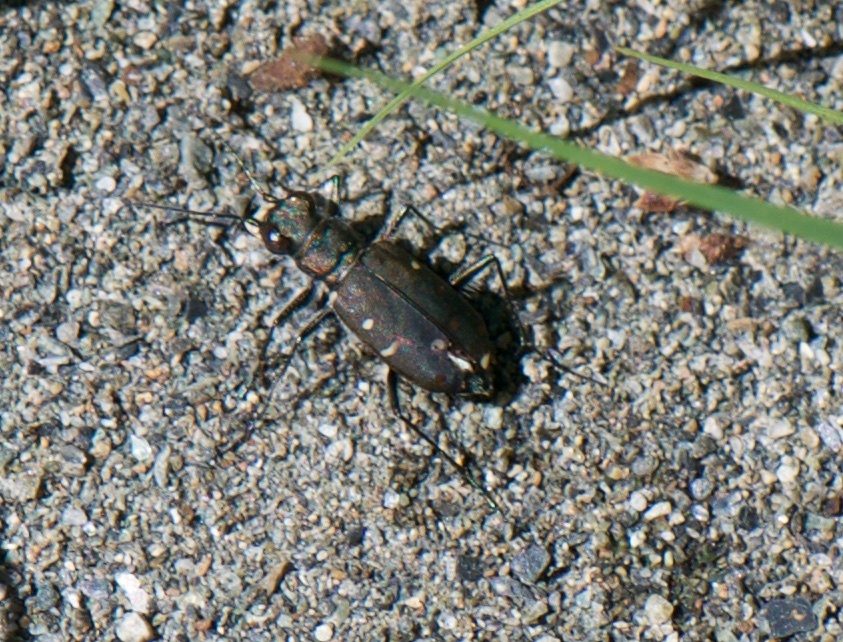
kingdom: Animalia
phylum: Arthropoda
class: Insecta
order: Coleoptera
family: Carabidae
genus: Cicindela
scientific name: Cicindela oregona
